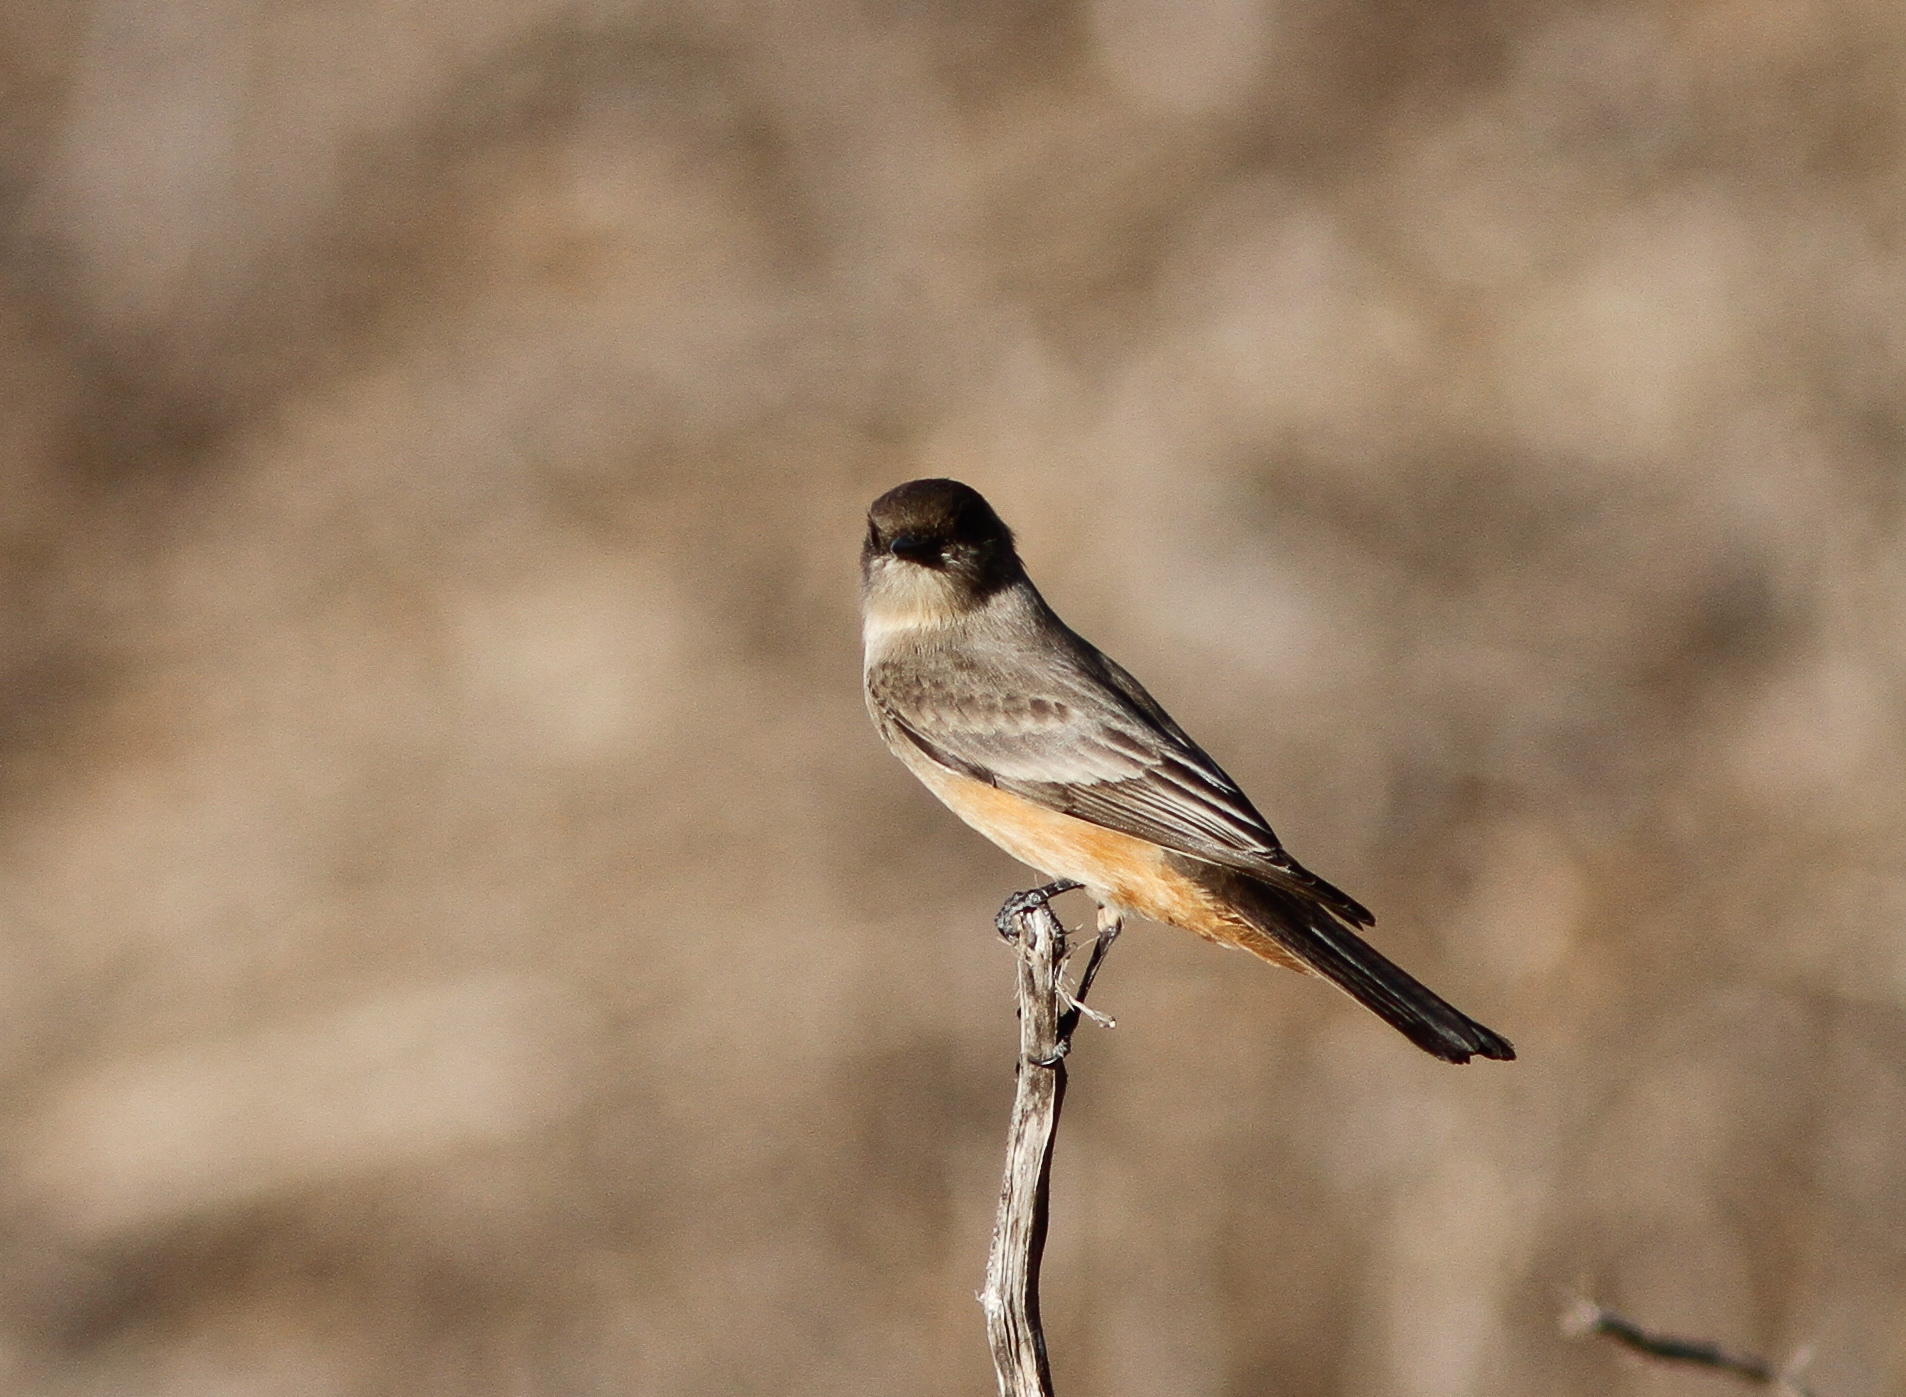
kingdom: Animalia
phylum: Chordata
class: Aves
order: Passeriformes
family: Tyrannidae
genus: Sayornis
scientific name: Sayornis saya
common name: Say's phoebe
